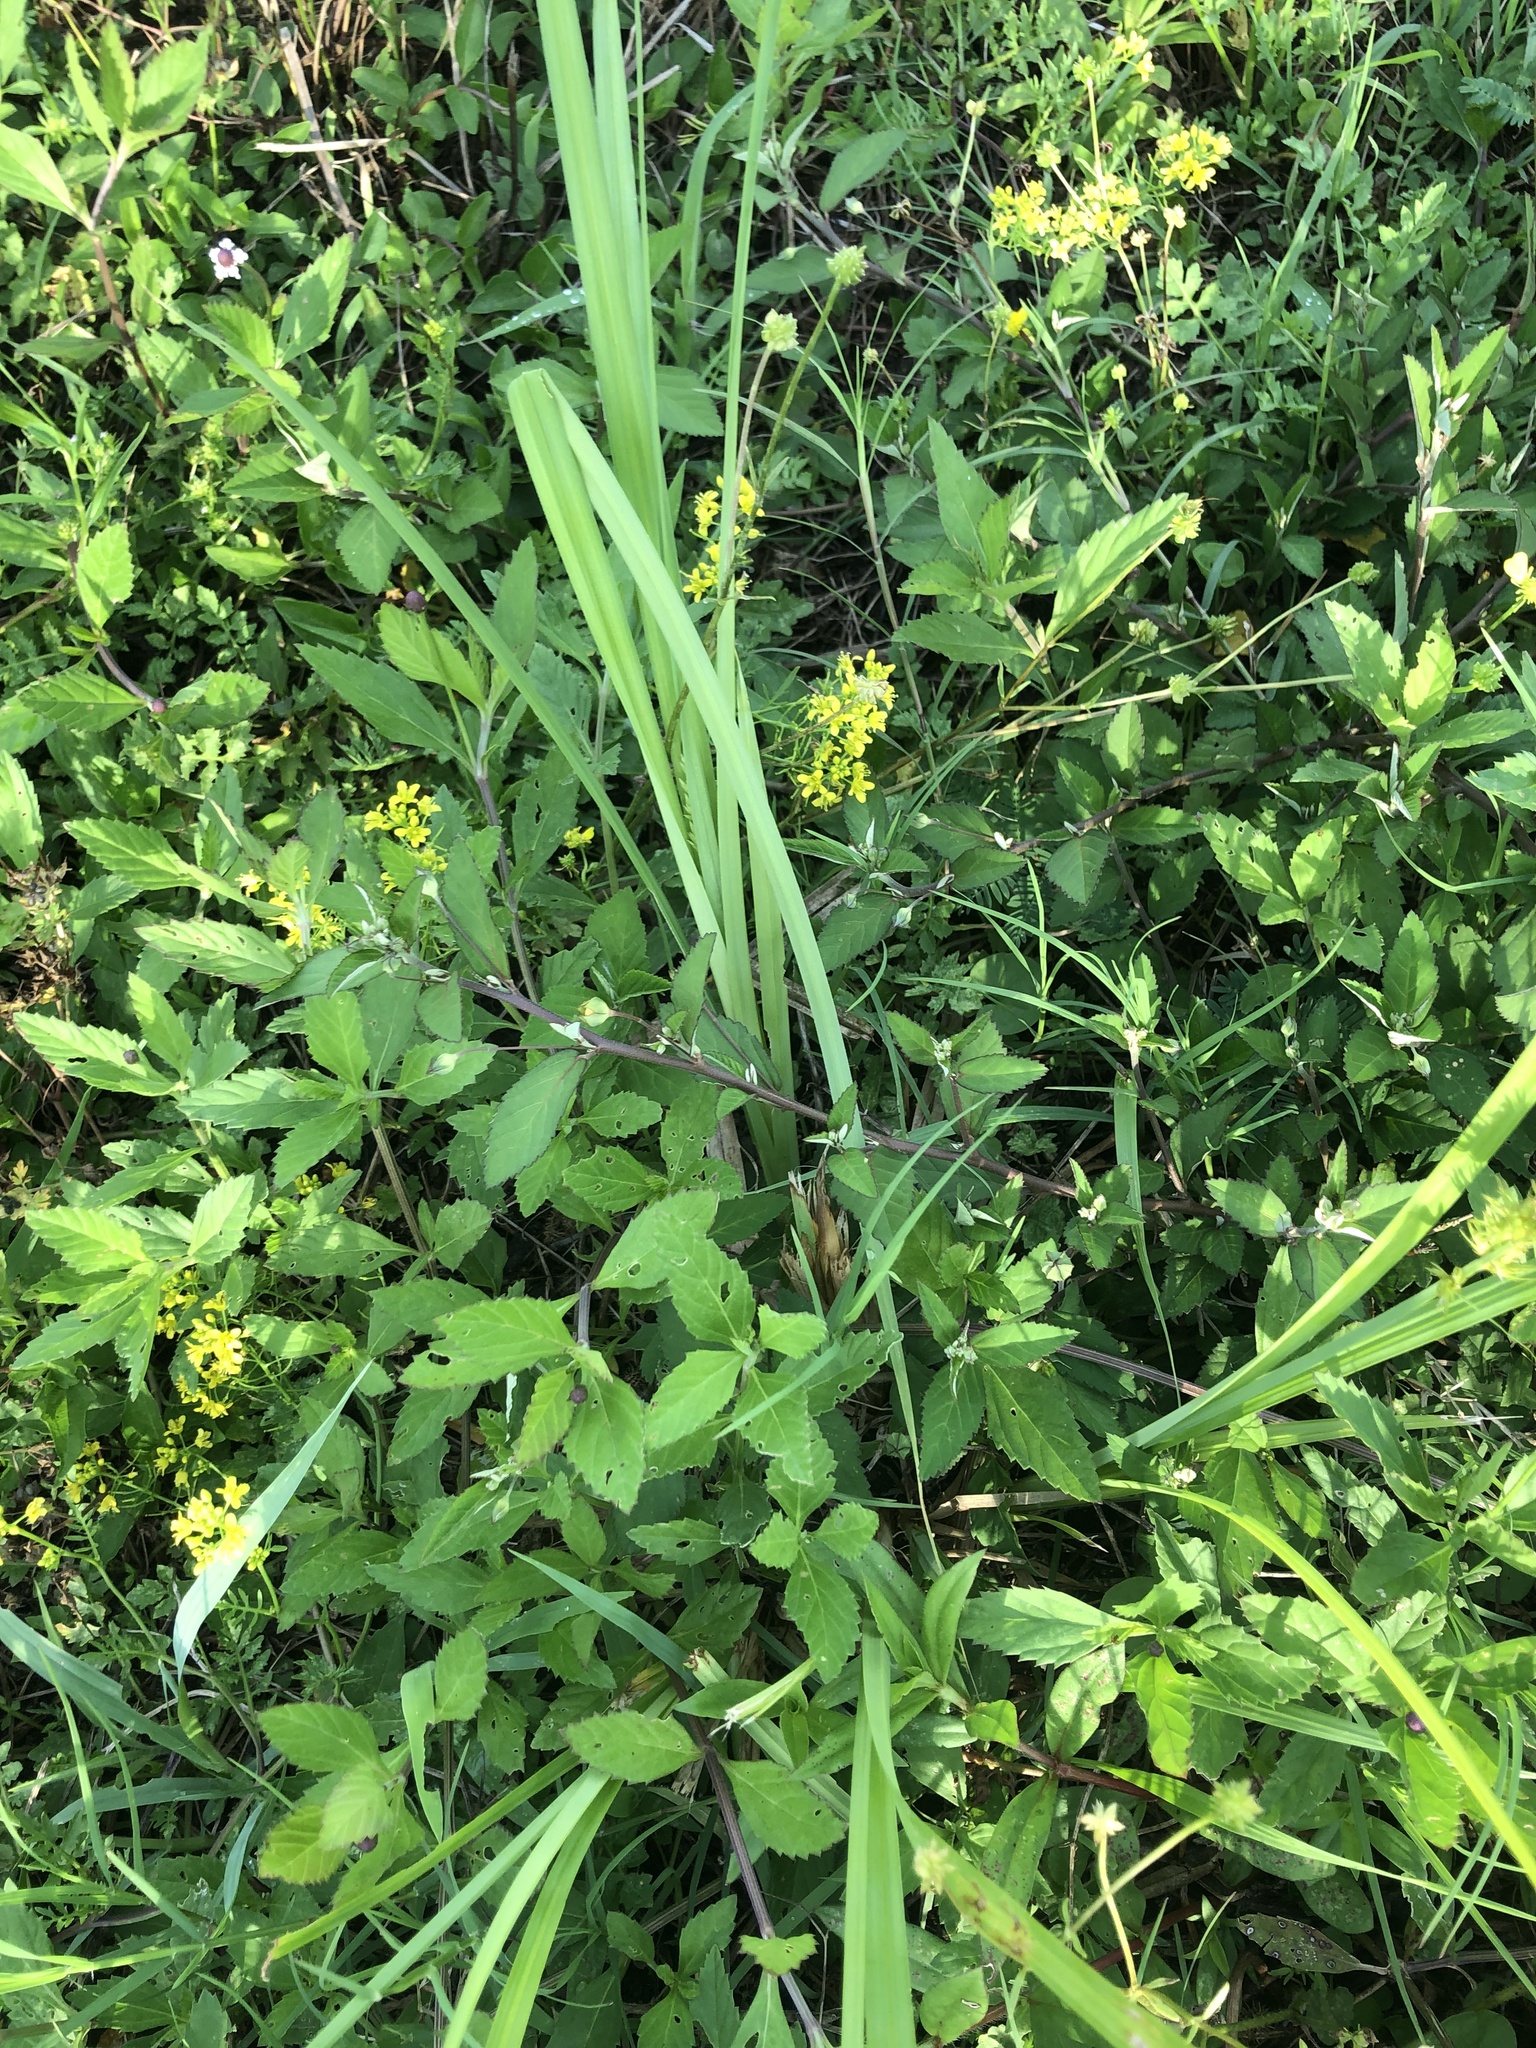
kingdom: Plantae
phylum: Tracheophyta
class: Liliopsida
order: Poales
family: Cyperaceae
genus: Carex
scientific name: Carex crus-corvi
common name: Crow-spur sedge
